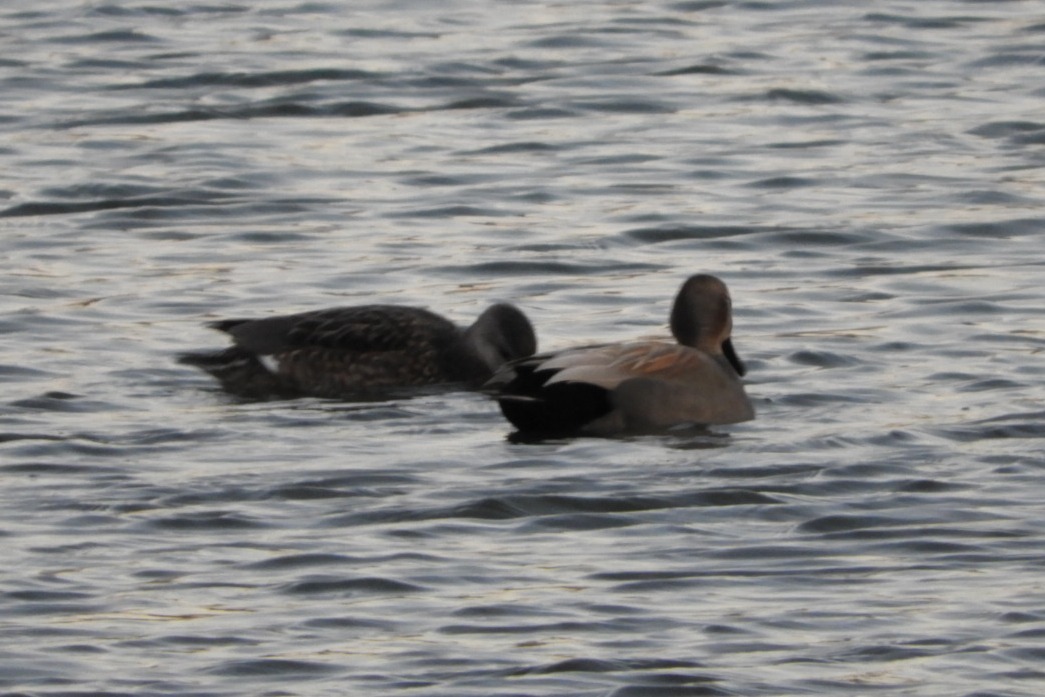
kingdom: Animalia
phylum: Chordata
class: Aves
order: Anseriformes
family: Anatidae
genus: Mareca
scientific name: Mareca strepera
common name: Gadwall
